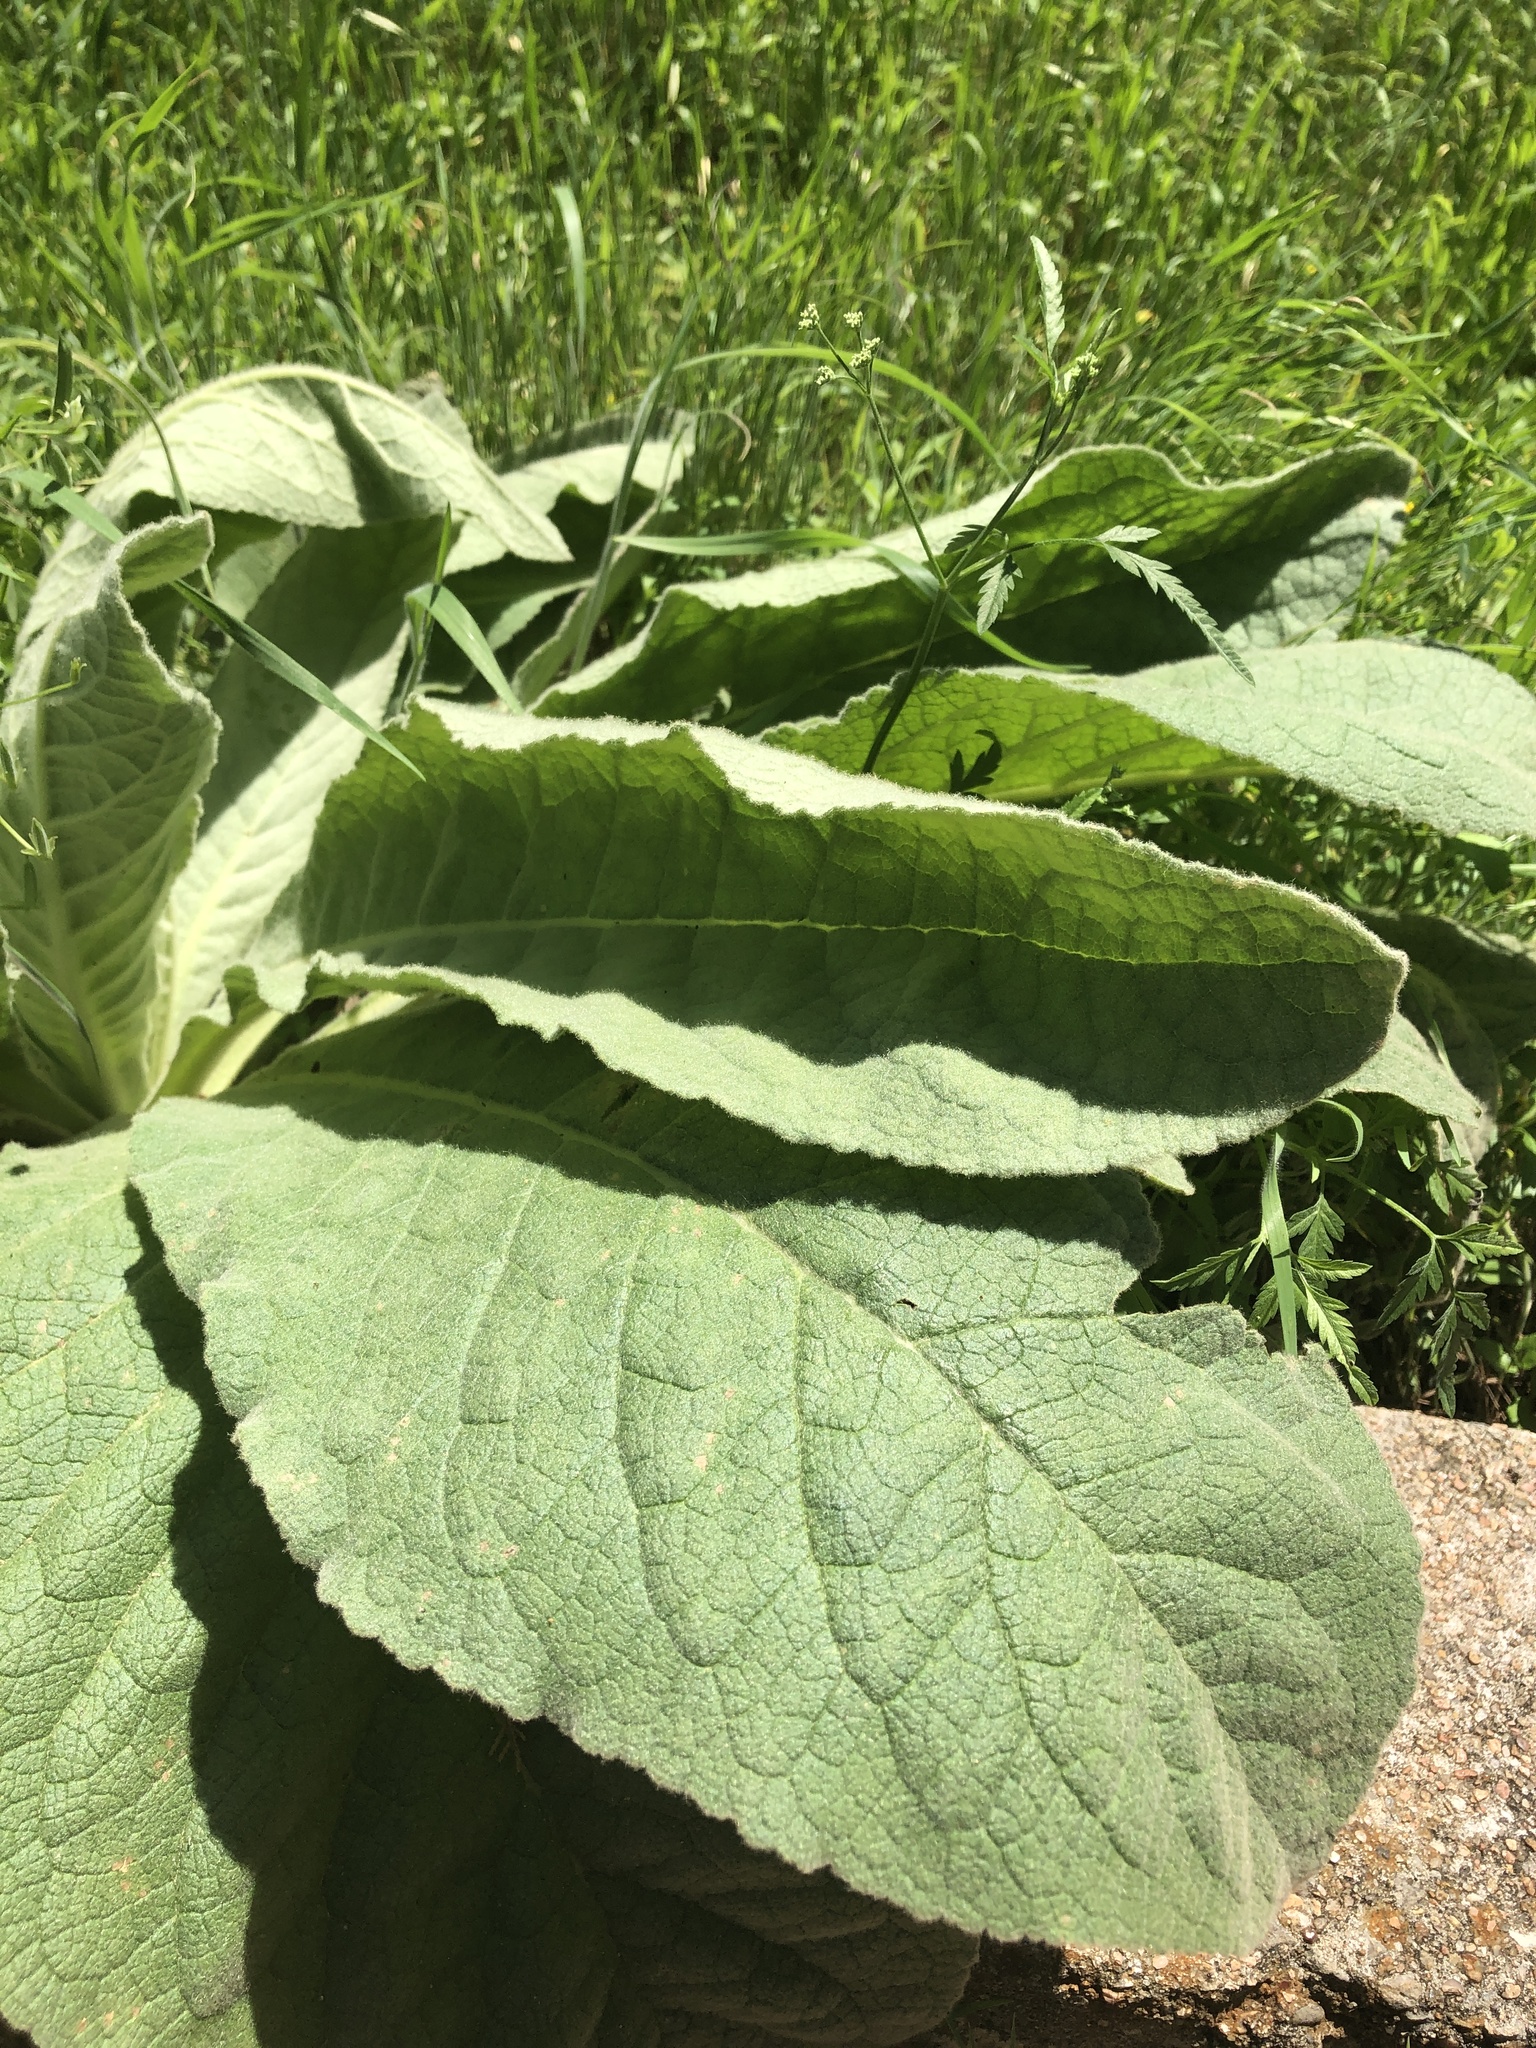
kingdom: Plantae
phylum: Tracheophyta
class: Magnoliopsida
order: Lamiales
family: Scrophulariaceae
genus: Verbascum
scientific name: Verbascum thapsus
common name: Common mullein
